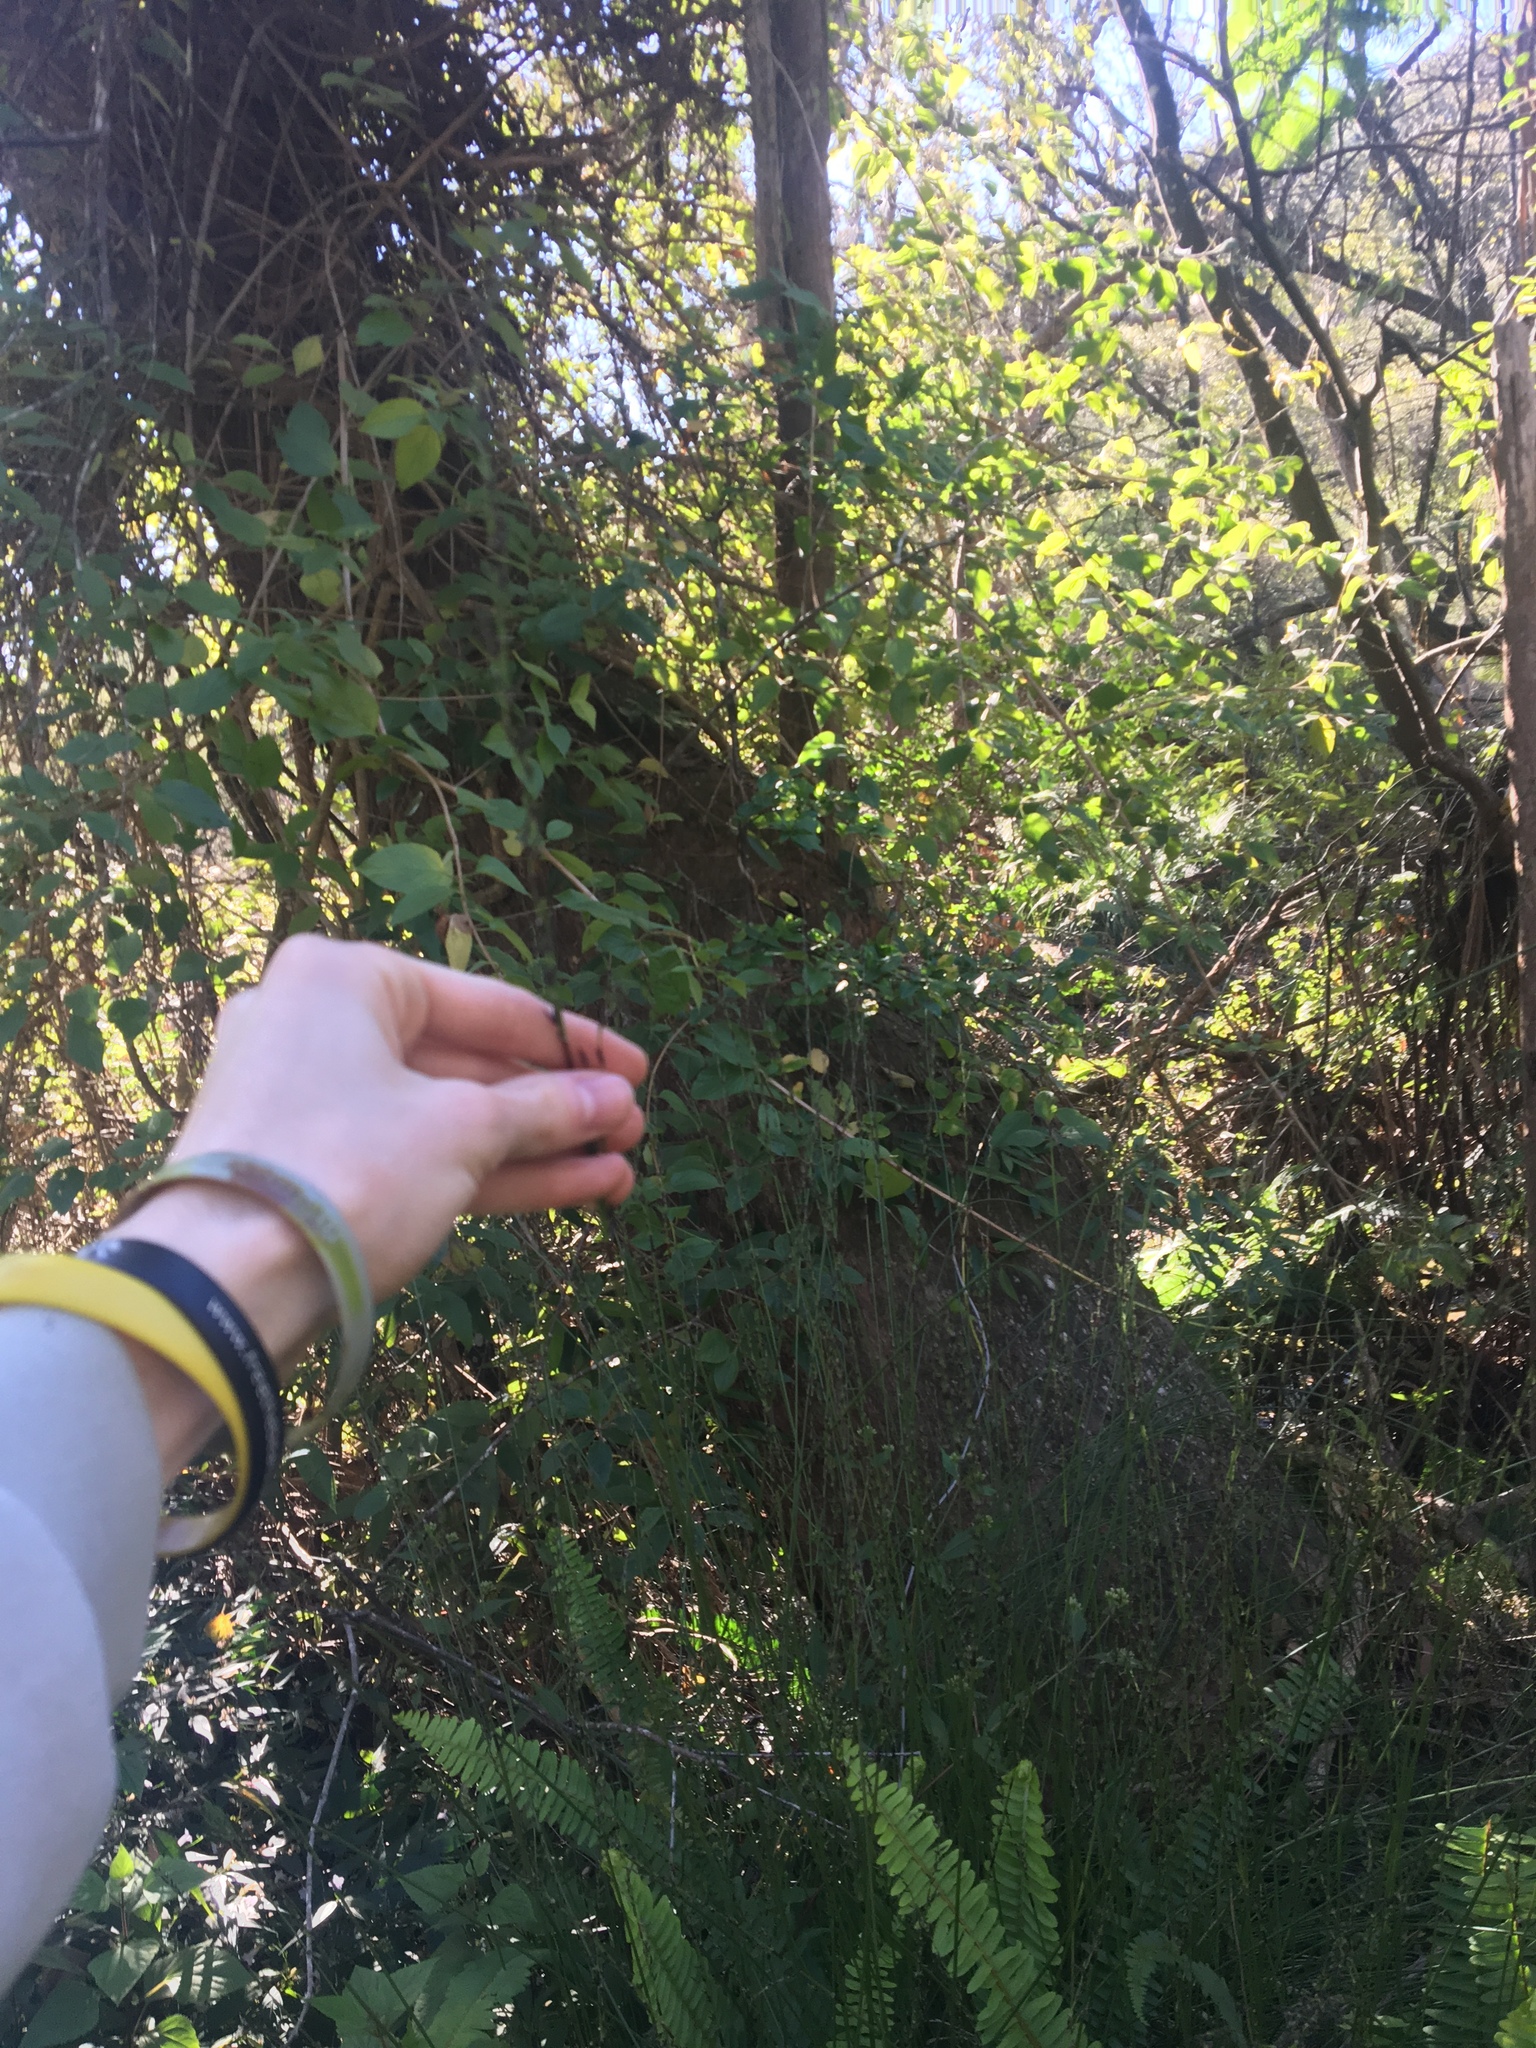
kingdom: Plantae
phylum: Tracheophyta
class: Liliopsida
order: Poales
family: Cyperaceae
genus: Schoenus
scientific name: Schoenus melanostachys
